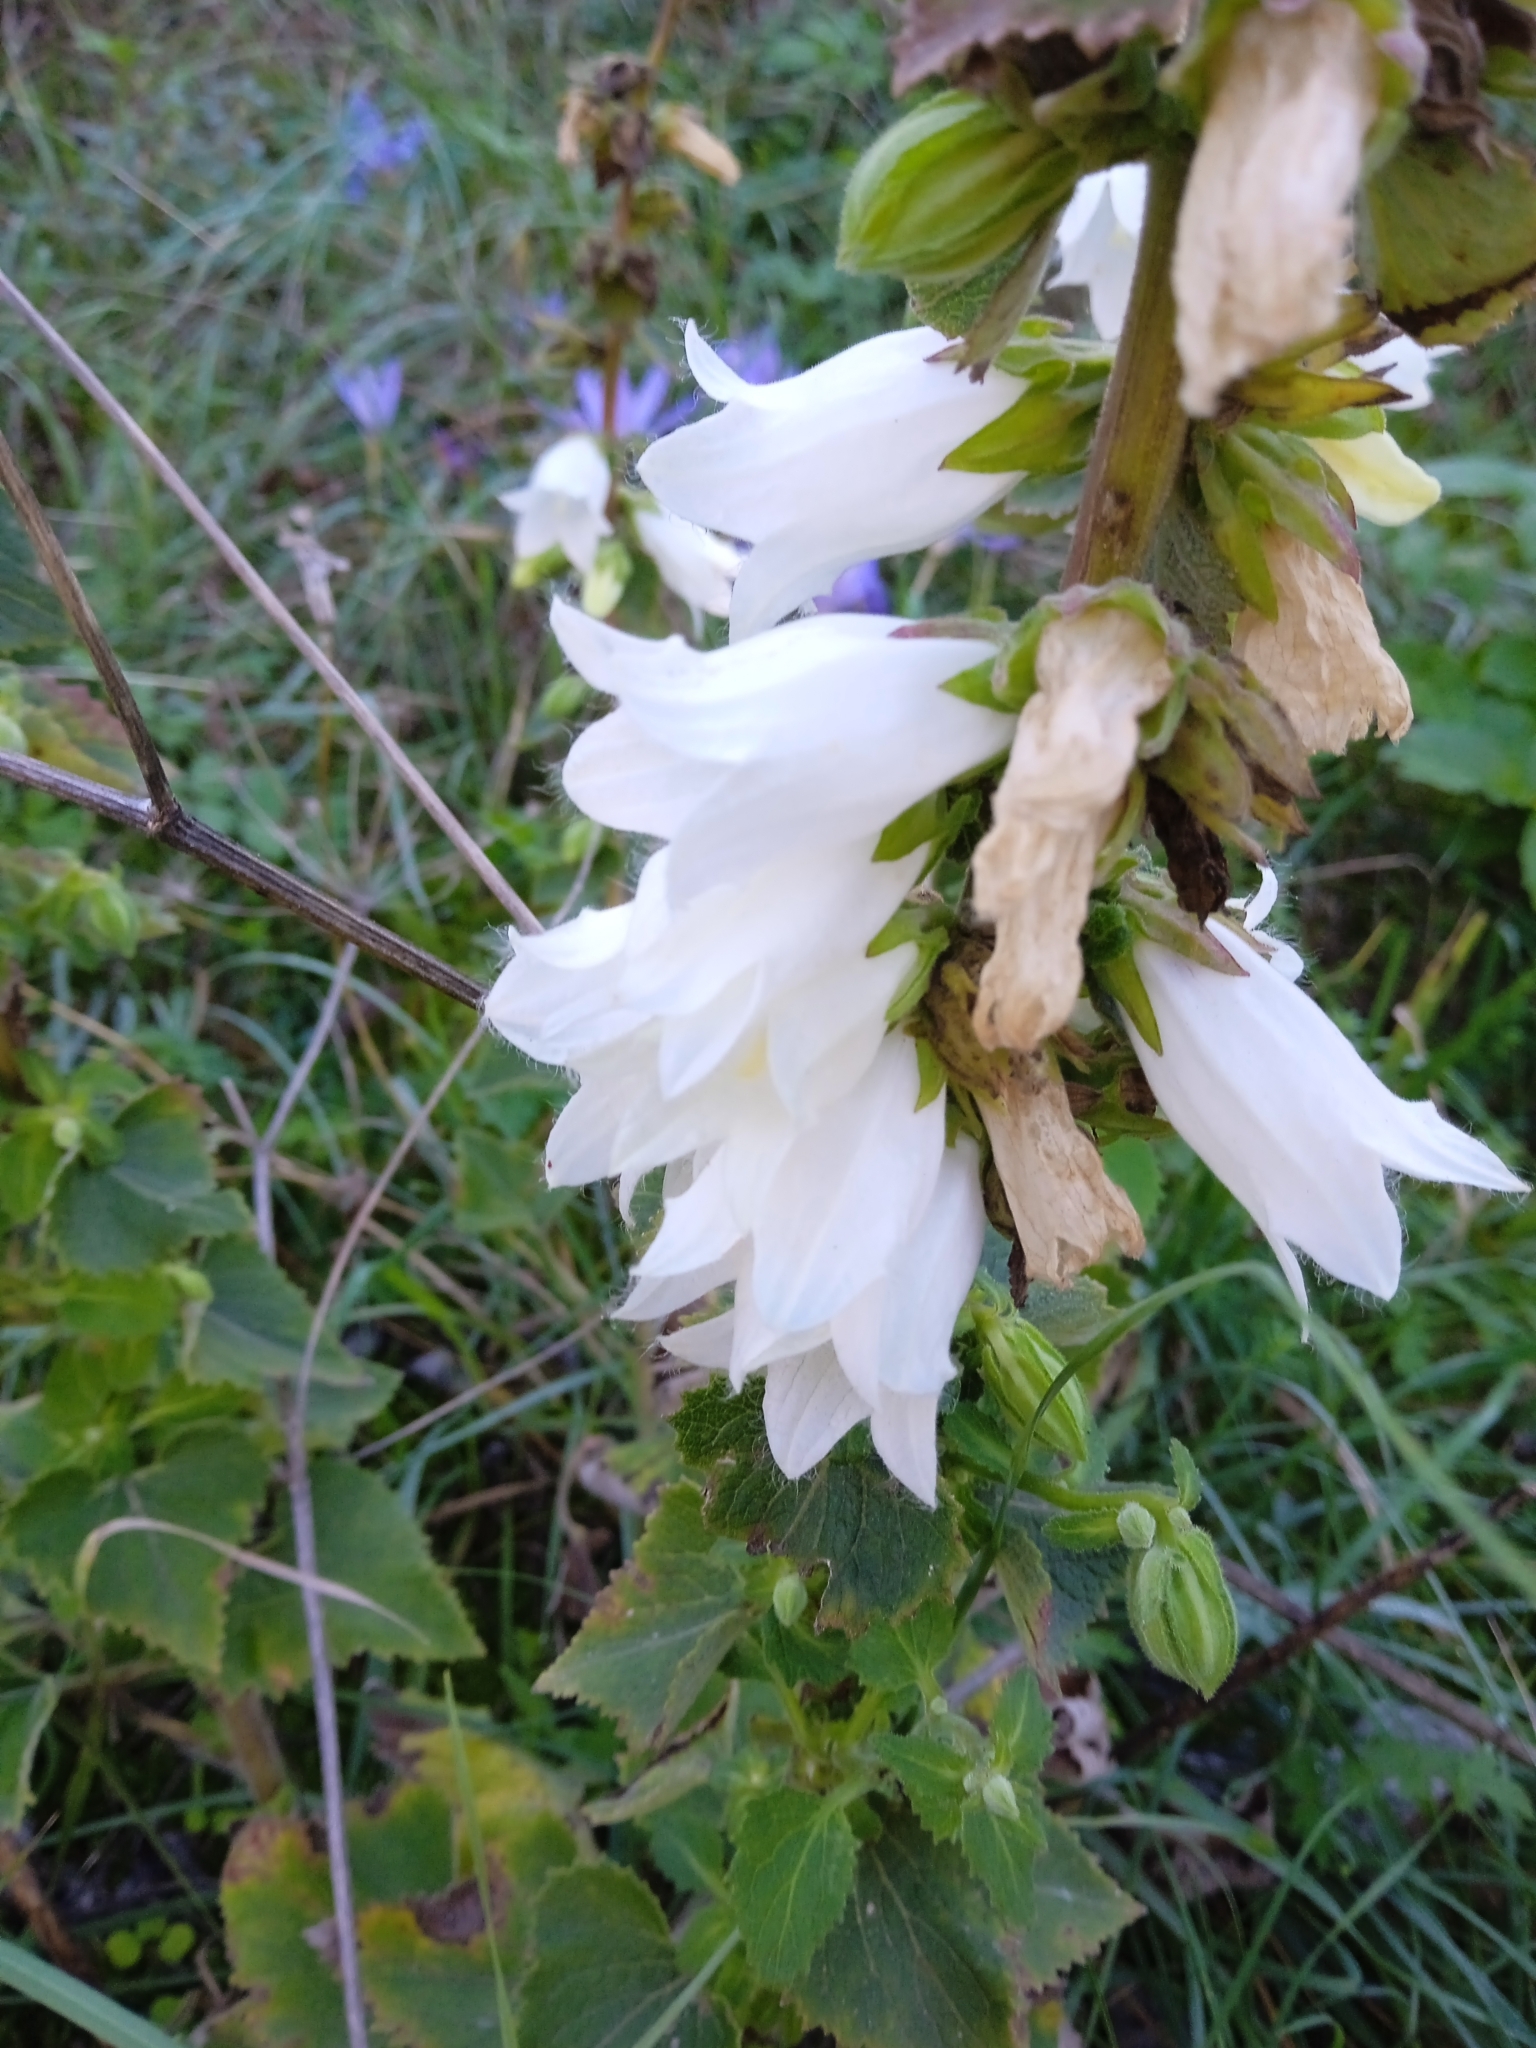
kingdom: Plantae
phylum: Tracheophyta
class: Magnoliopsida
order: Asterales
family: Campanulaceae
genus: Campanula
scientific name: Campanula alliariifolia
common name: Cornish bellflower
